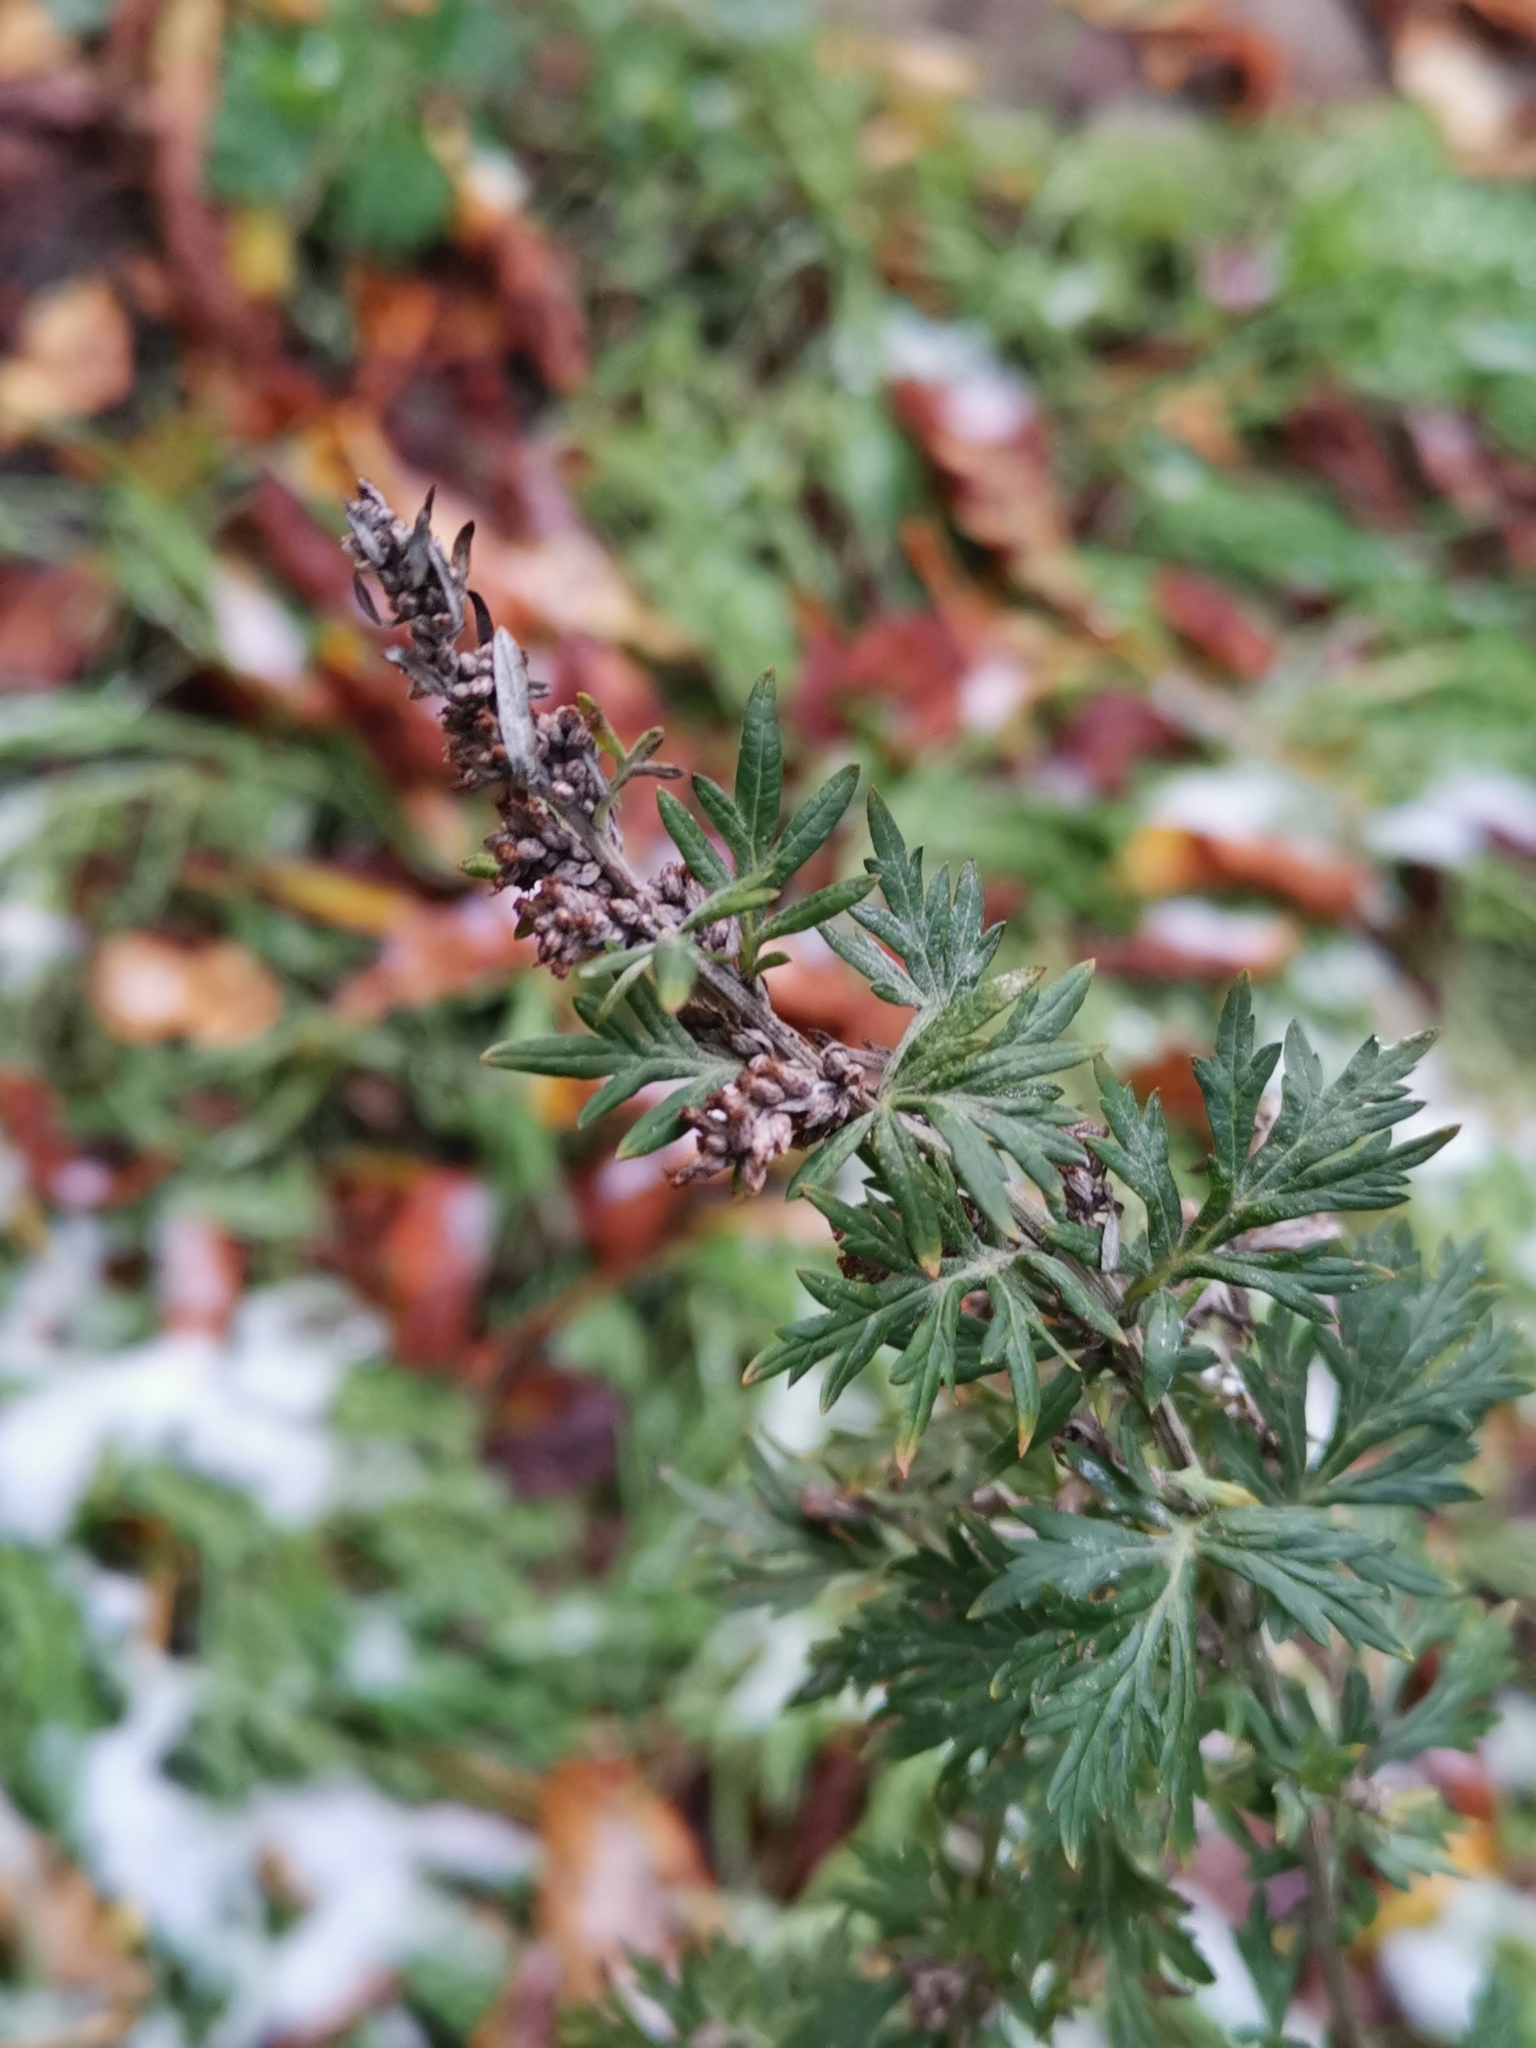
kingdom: Plantae
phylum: Tracheophyta
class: Magnoliopsida
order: Asterales
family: Asteraceae
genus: Artemisia
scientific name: Artemisia vulgaris
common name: Mugwort
